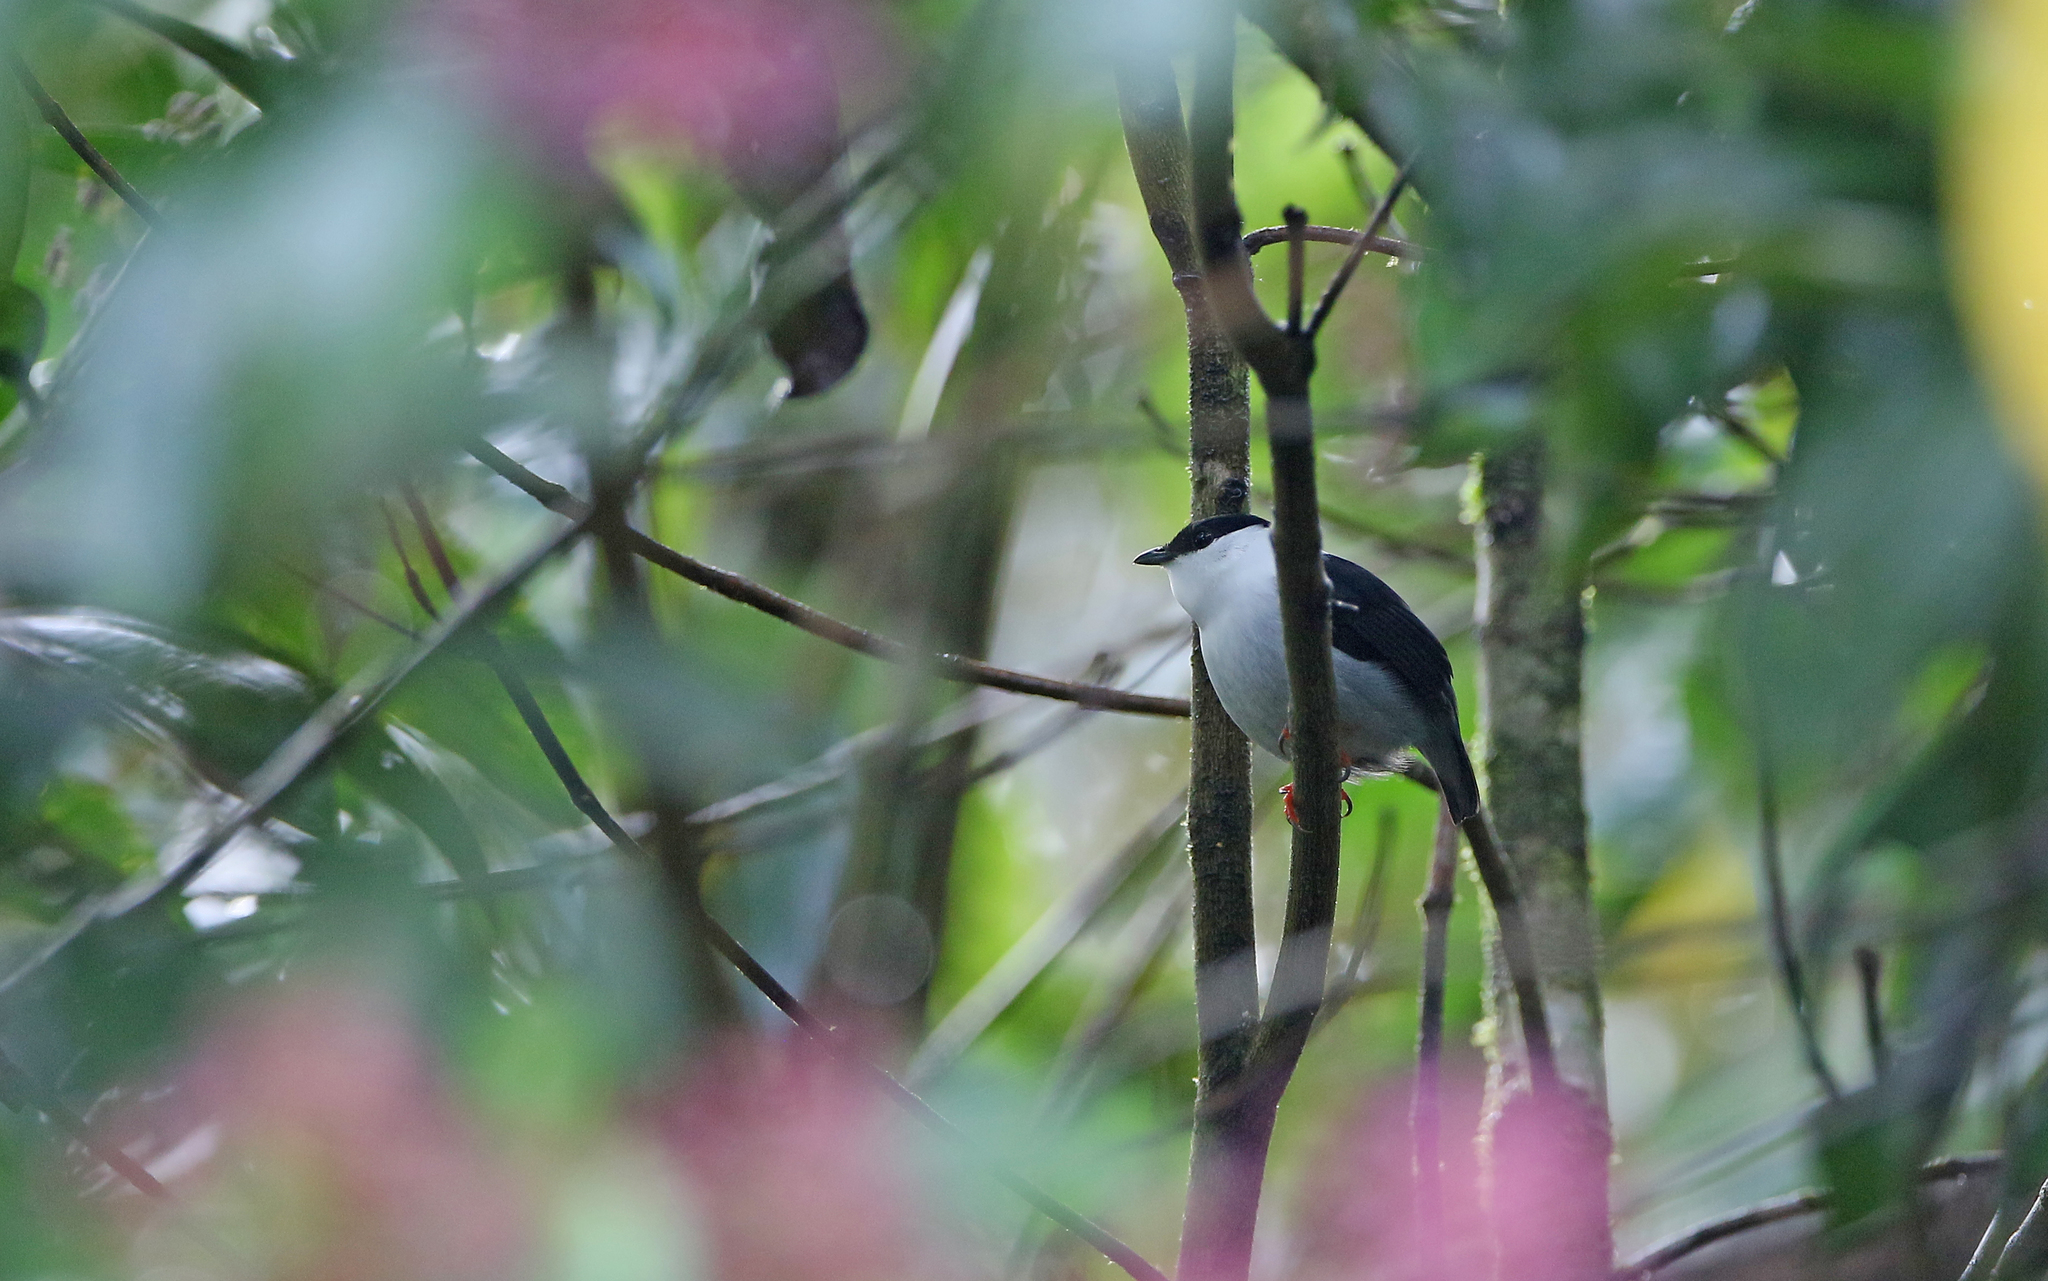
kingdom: Animalia
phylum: Chordata
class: Aves
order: Passeriformes
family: Pipridae
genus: Manacus
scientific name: Manacus manacus
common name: White-bearded manakin
